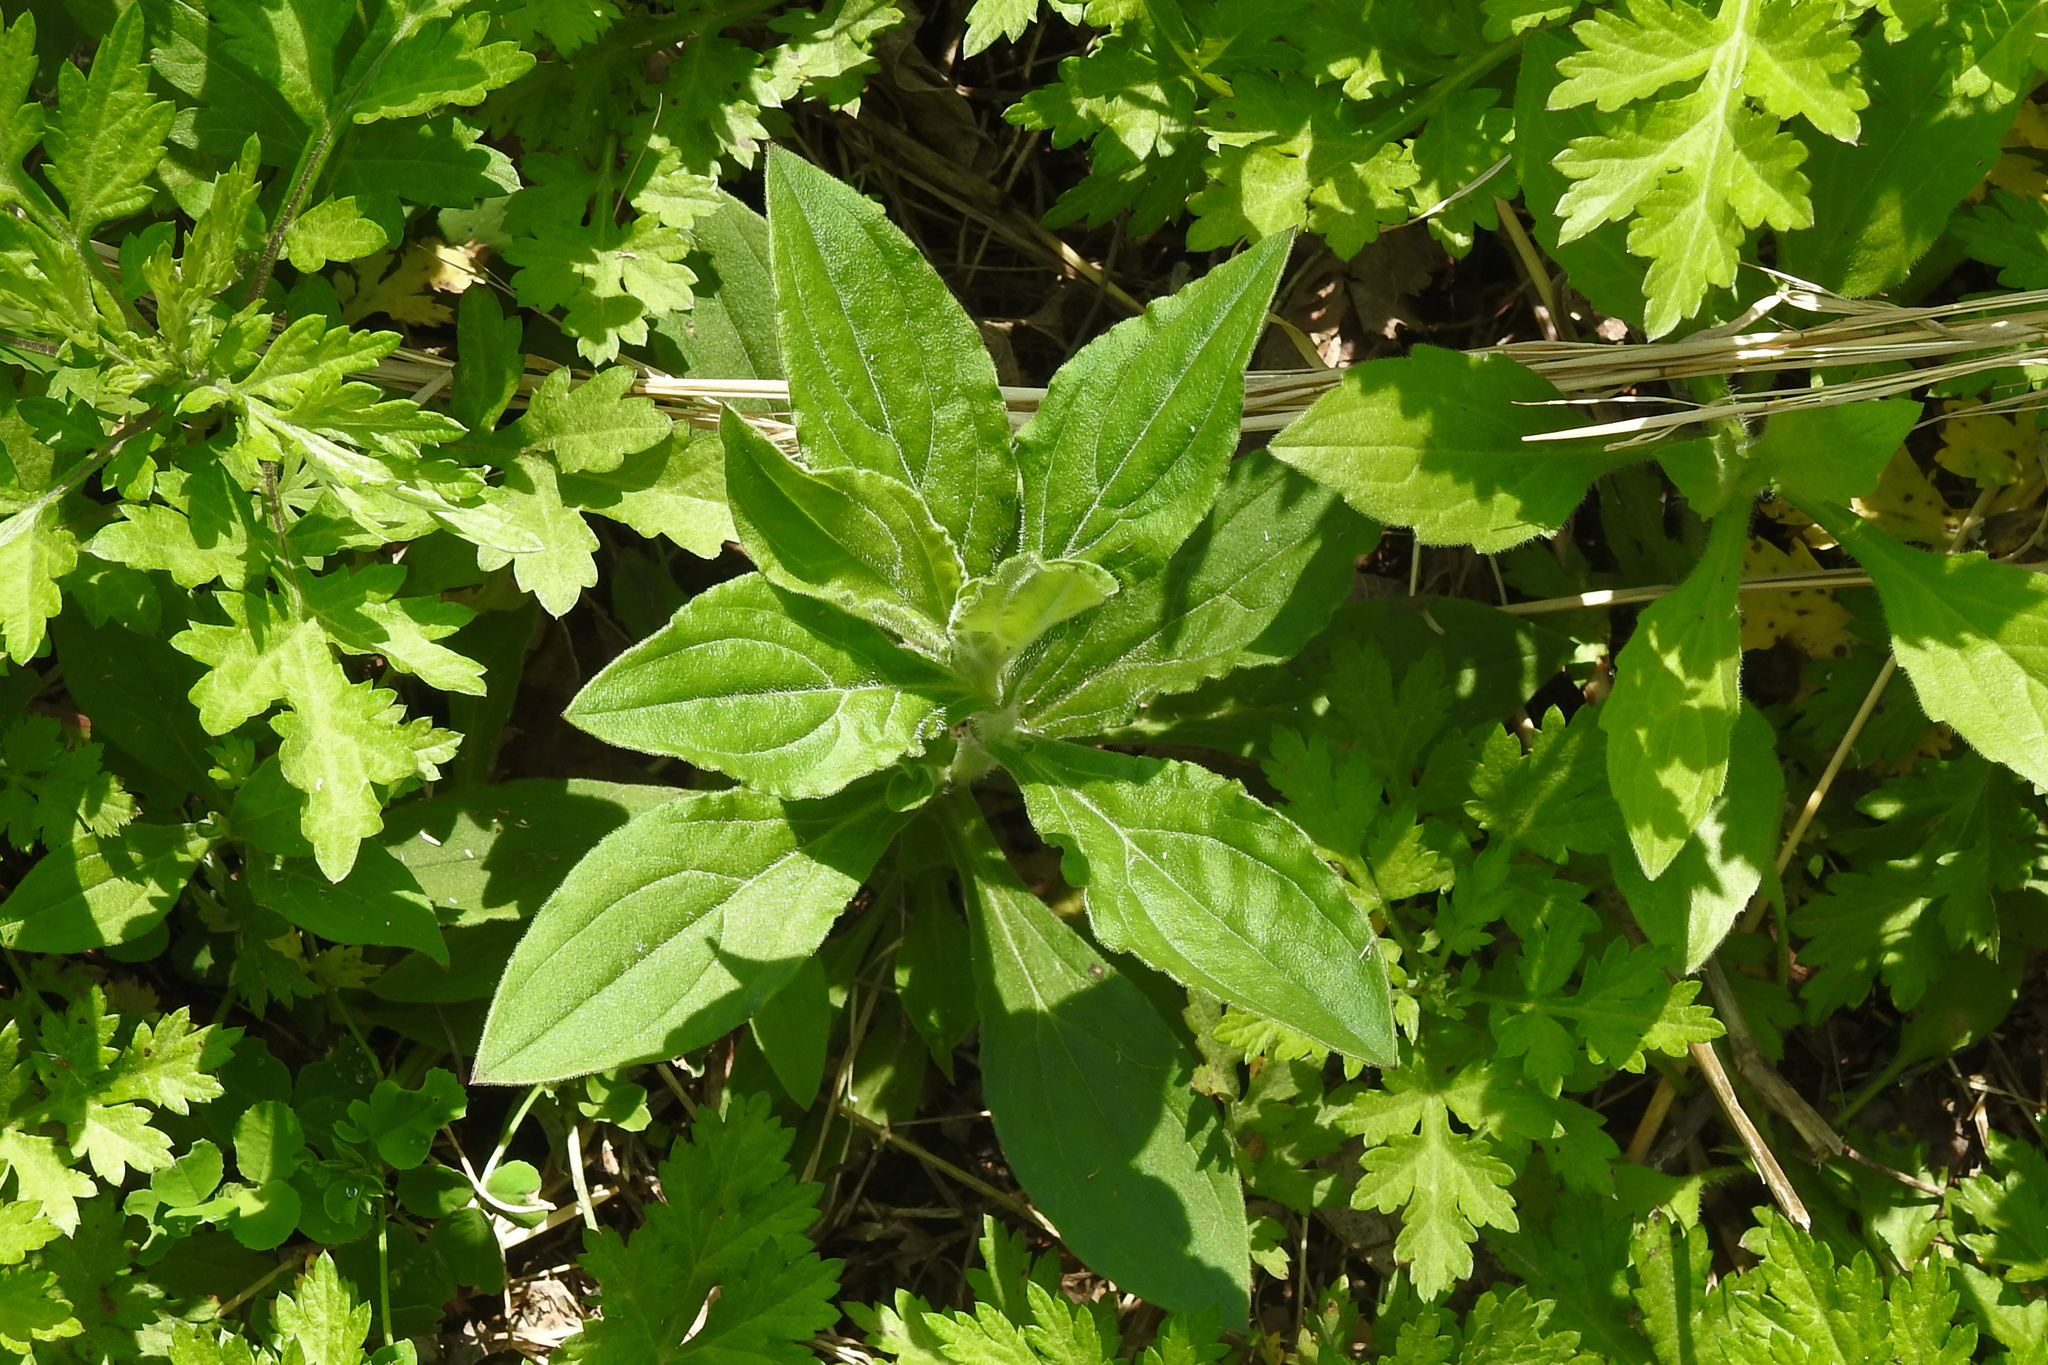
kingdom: Plantae
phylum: Tracheophyta
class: Magnoliopsida
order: Boraginales
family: Boraginaceae
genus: Hackelia
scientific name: Hackelia virginiana
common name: Beggar's-lice
